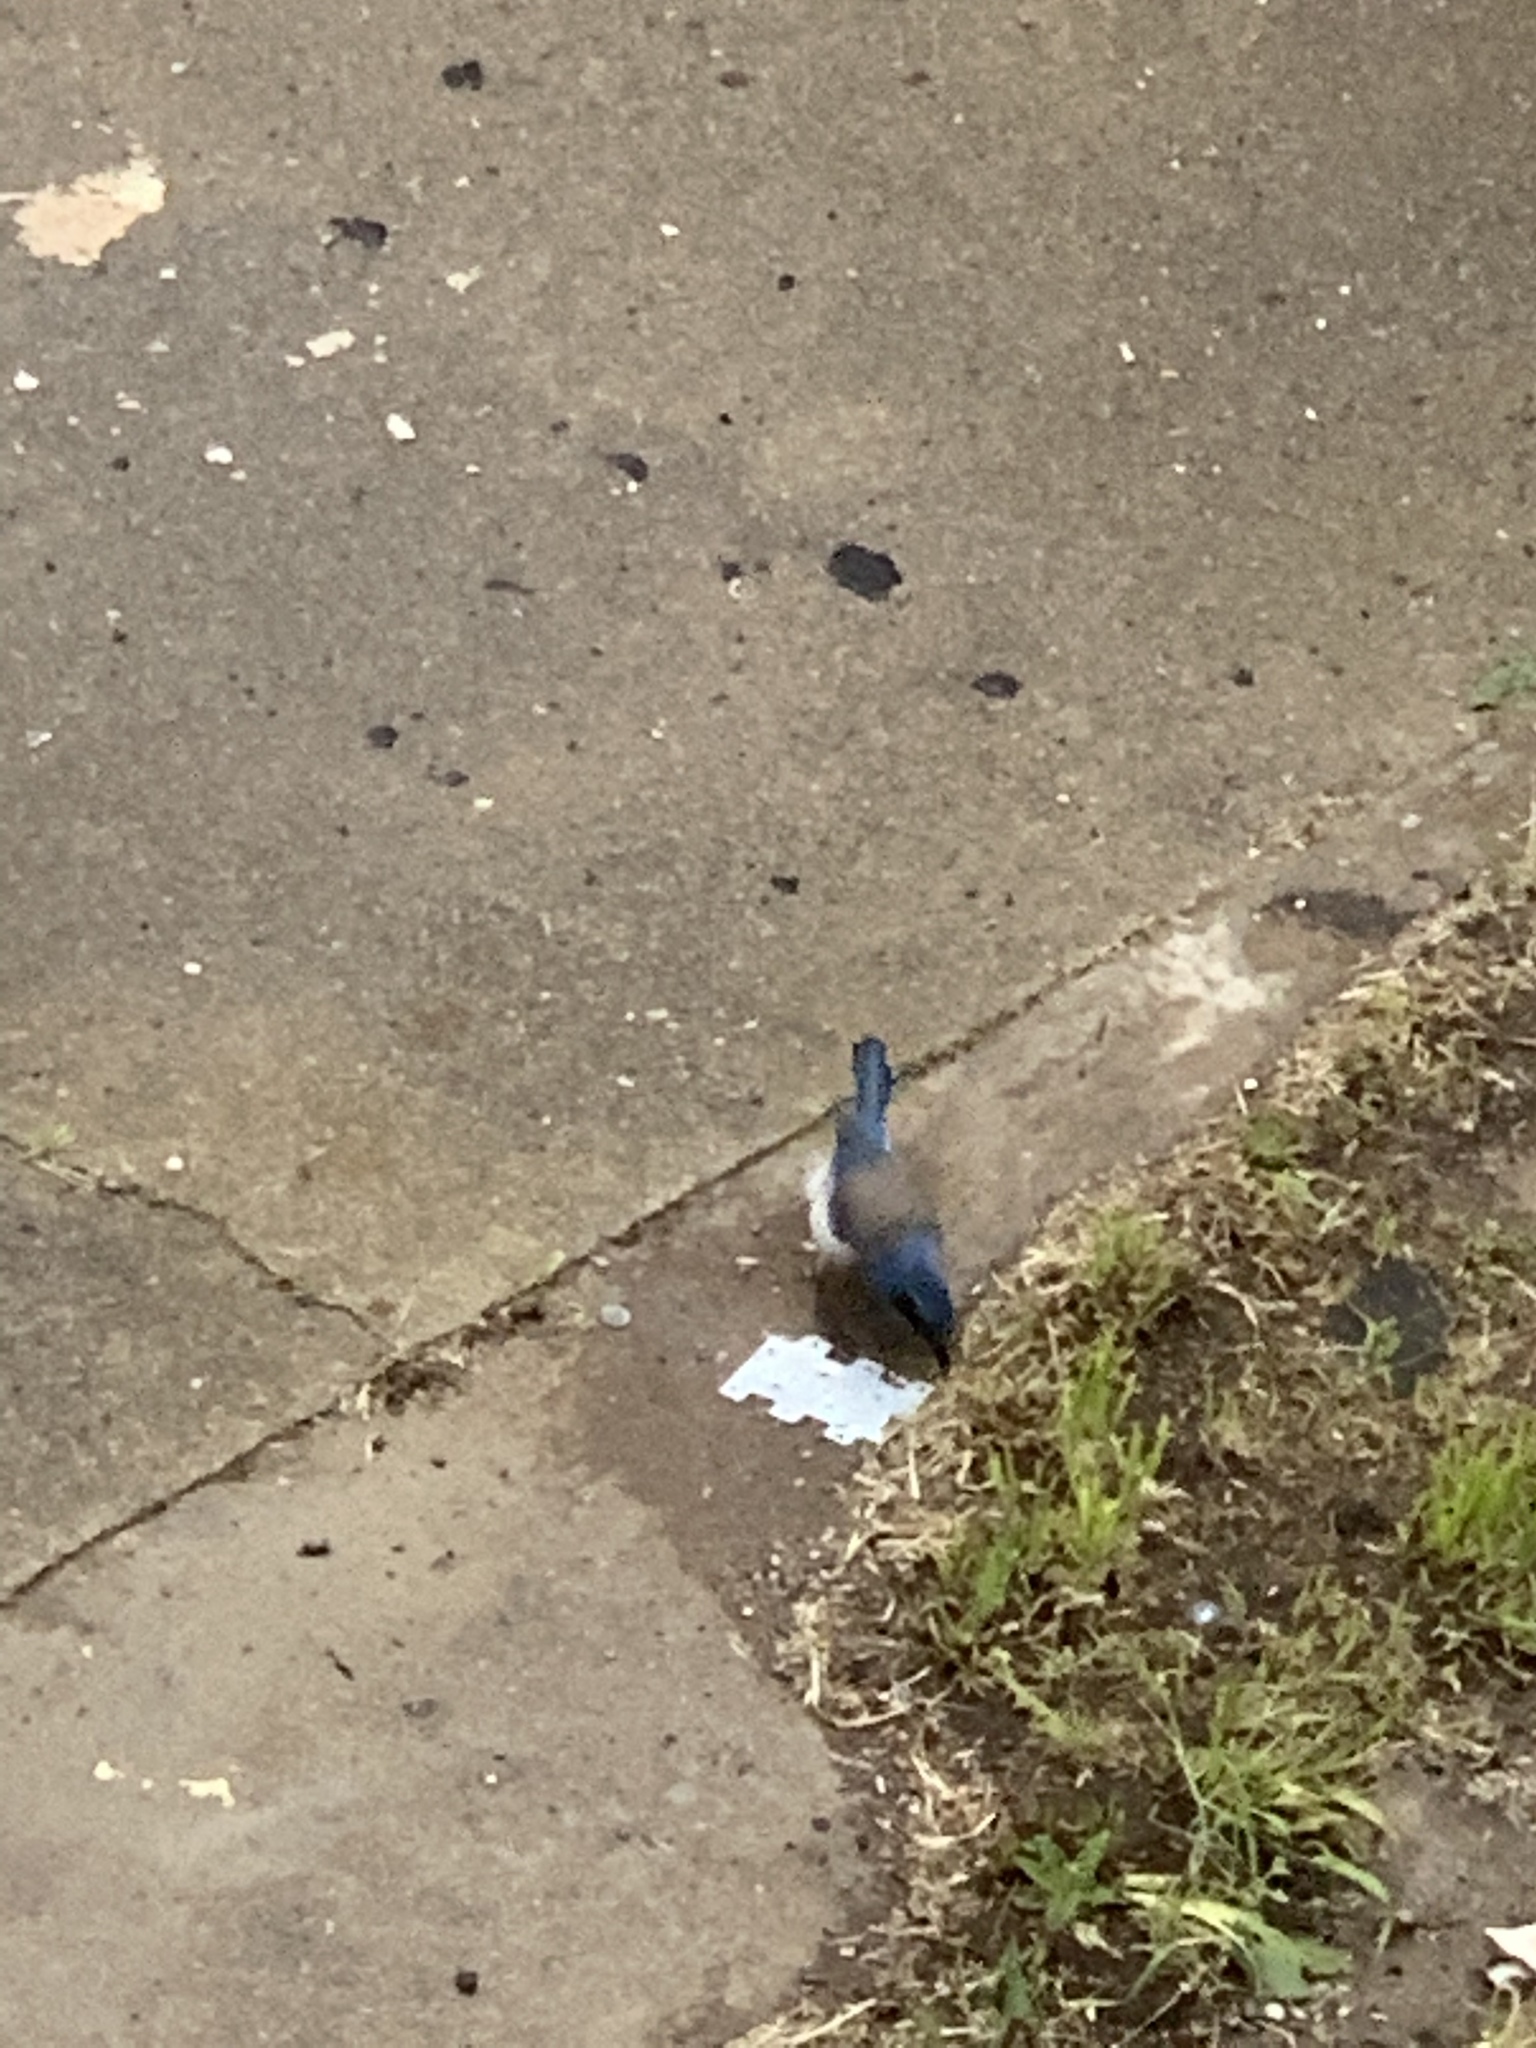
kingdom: Animalia
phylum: Chordata
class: Aves
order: Passeriformes
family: Corvidae
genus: Aphelocoma
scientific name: Aphelocoma californica
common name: California scrub-jay
